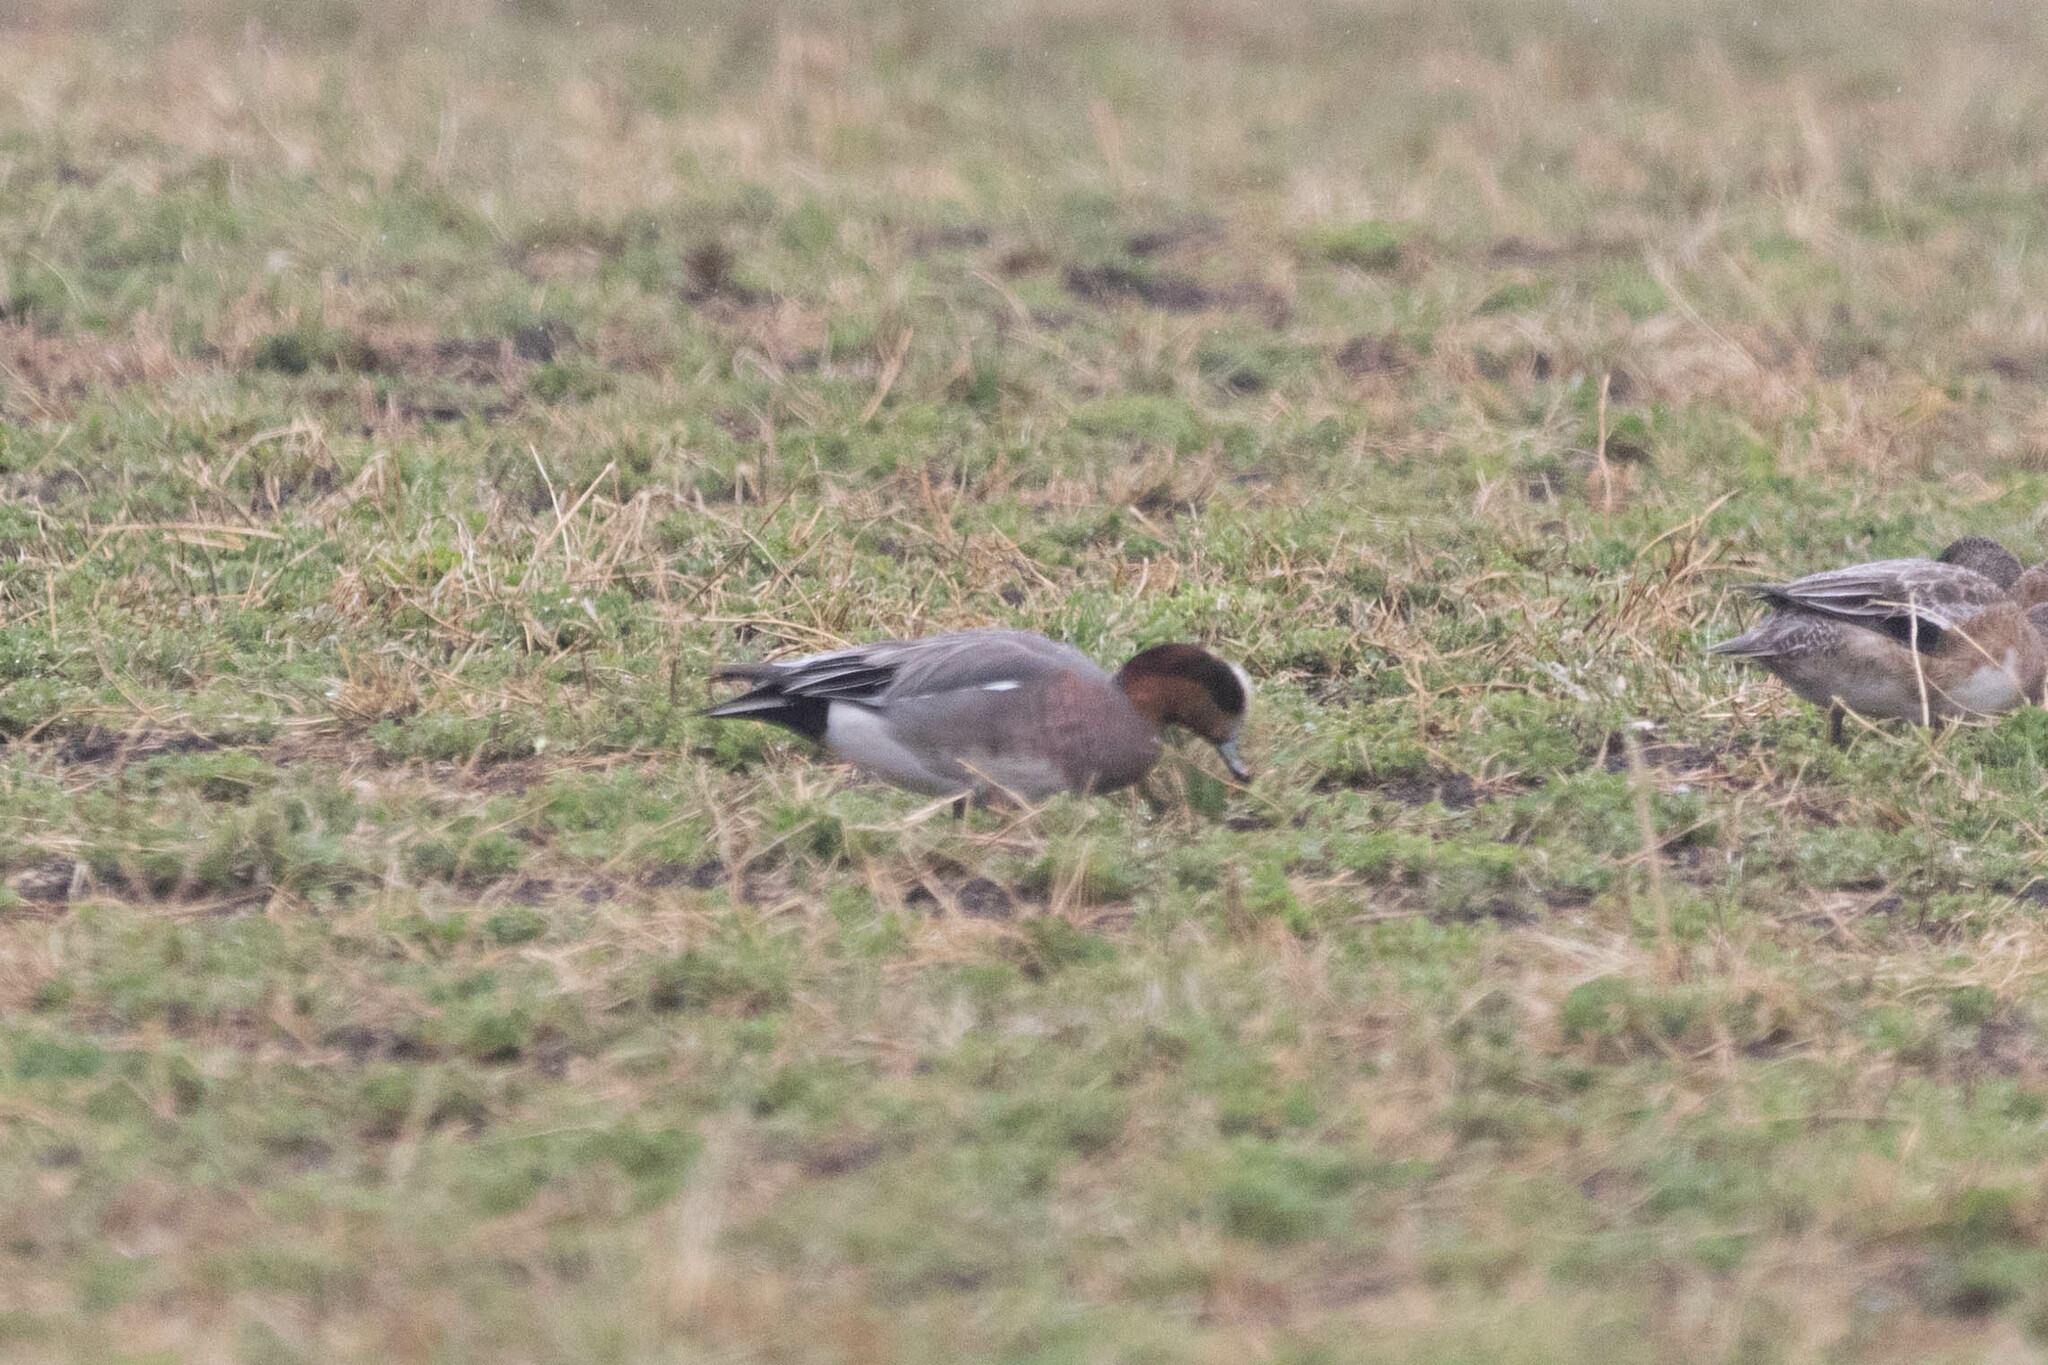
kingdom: Animalia
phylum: Chordata
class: Aves
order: Anseriformes
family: Anatidae
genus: Mareca
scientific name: Mareca
